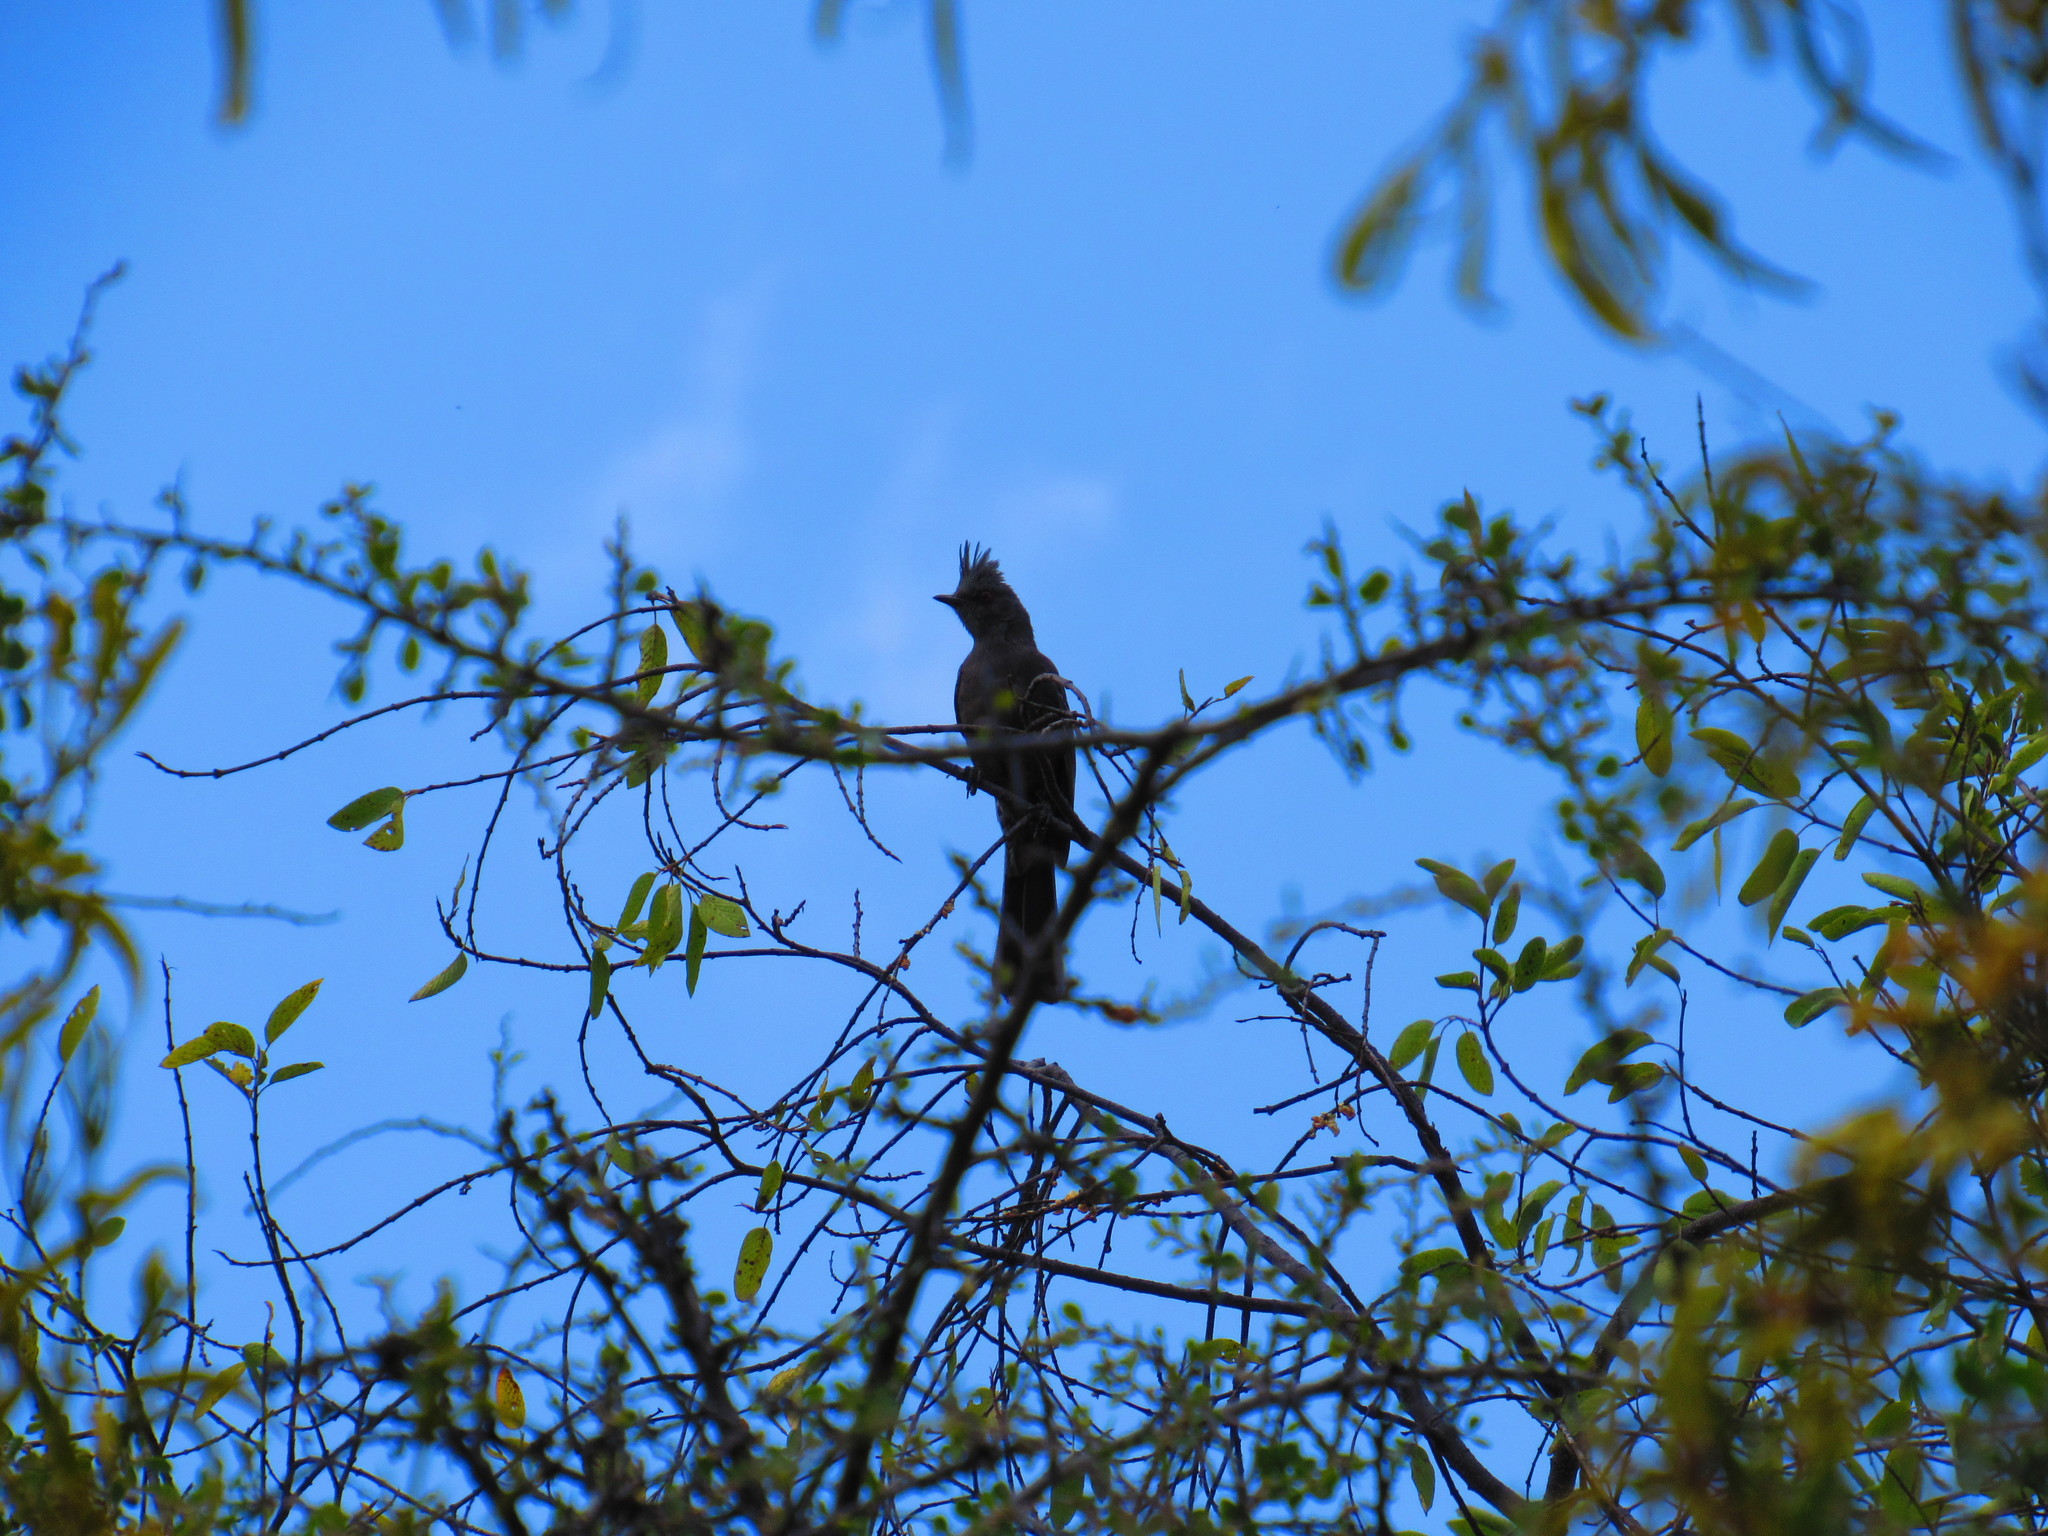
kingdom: Animalia
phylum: Chordata
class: Aves
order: Passeriformes
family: Ptilogonatidae
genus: Phainopepla
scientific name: Phainopepla nitens
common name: Phainopepla
